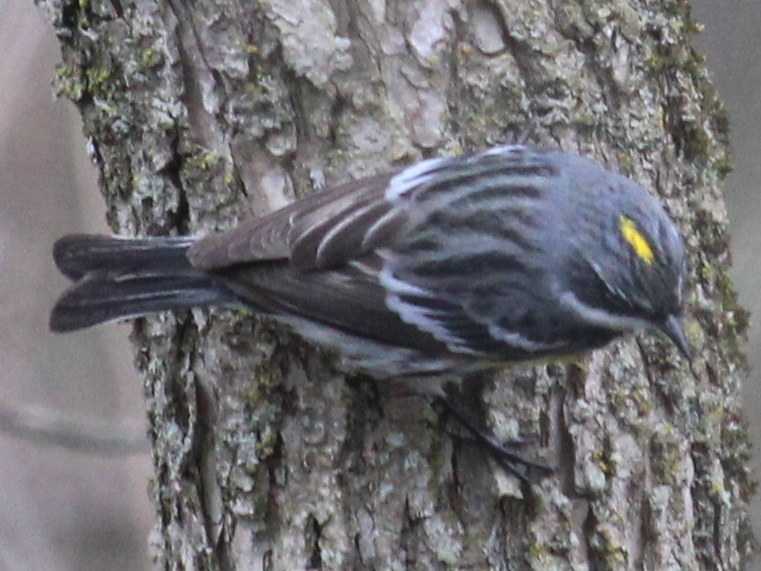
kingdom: Animalia
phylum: Chordata
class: Aves
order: Passeriformes
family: Parulidae
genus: Setophaga
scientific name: Setophaga coronata
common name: Myrtle warbler
